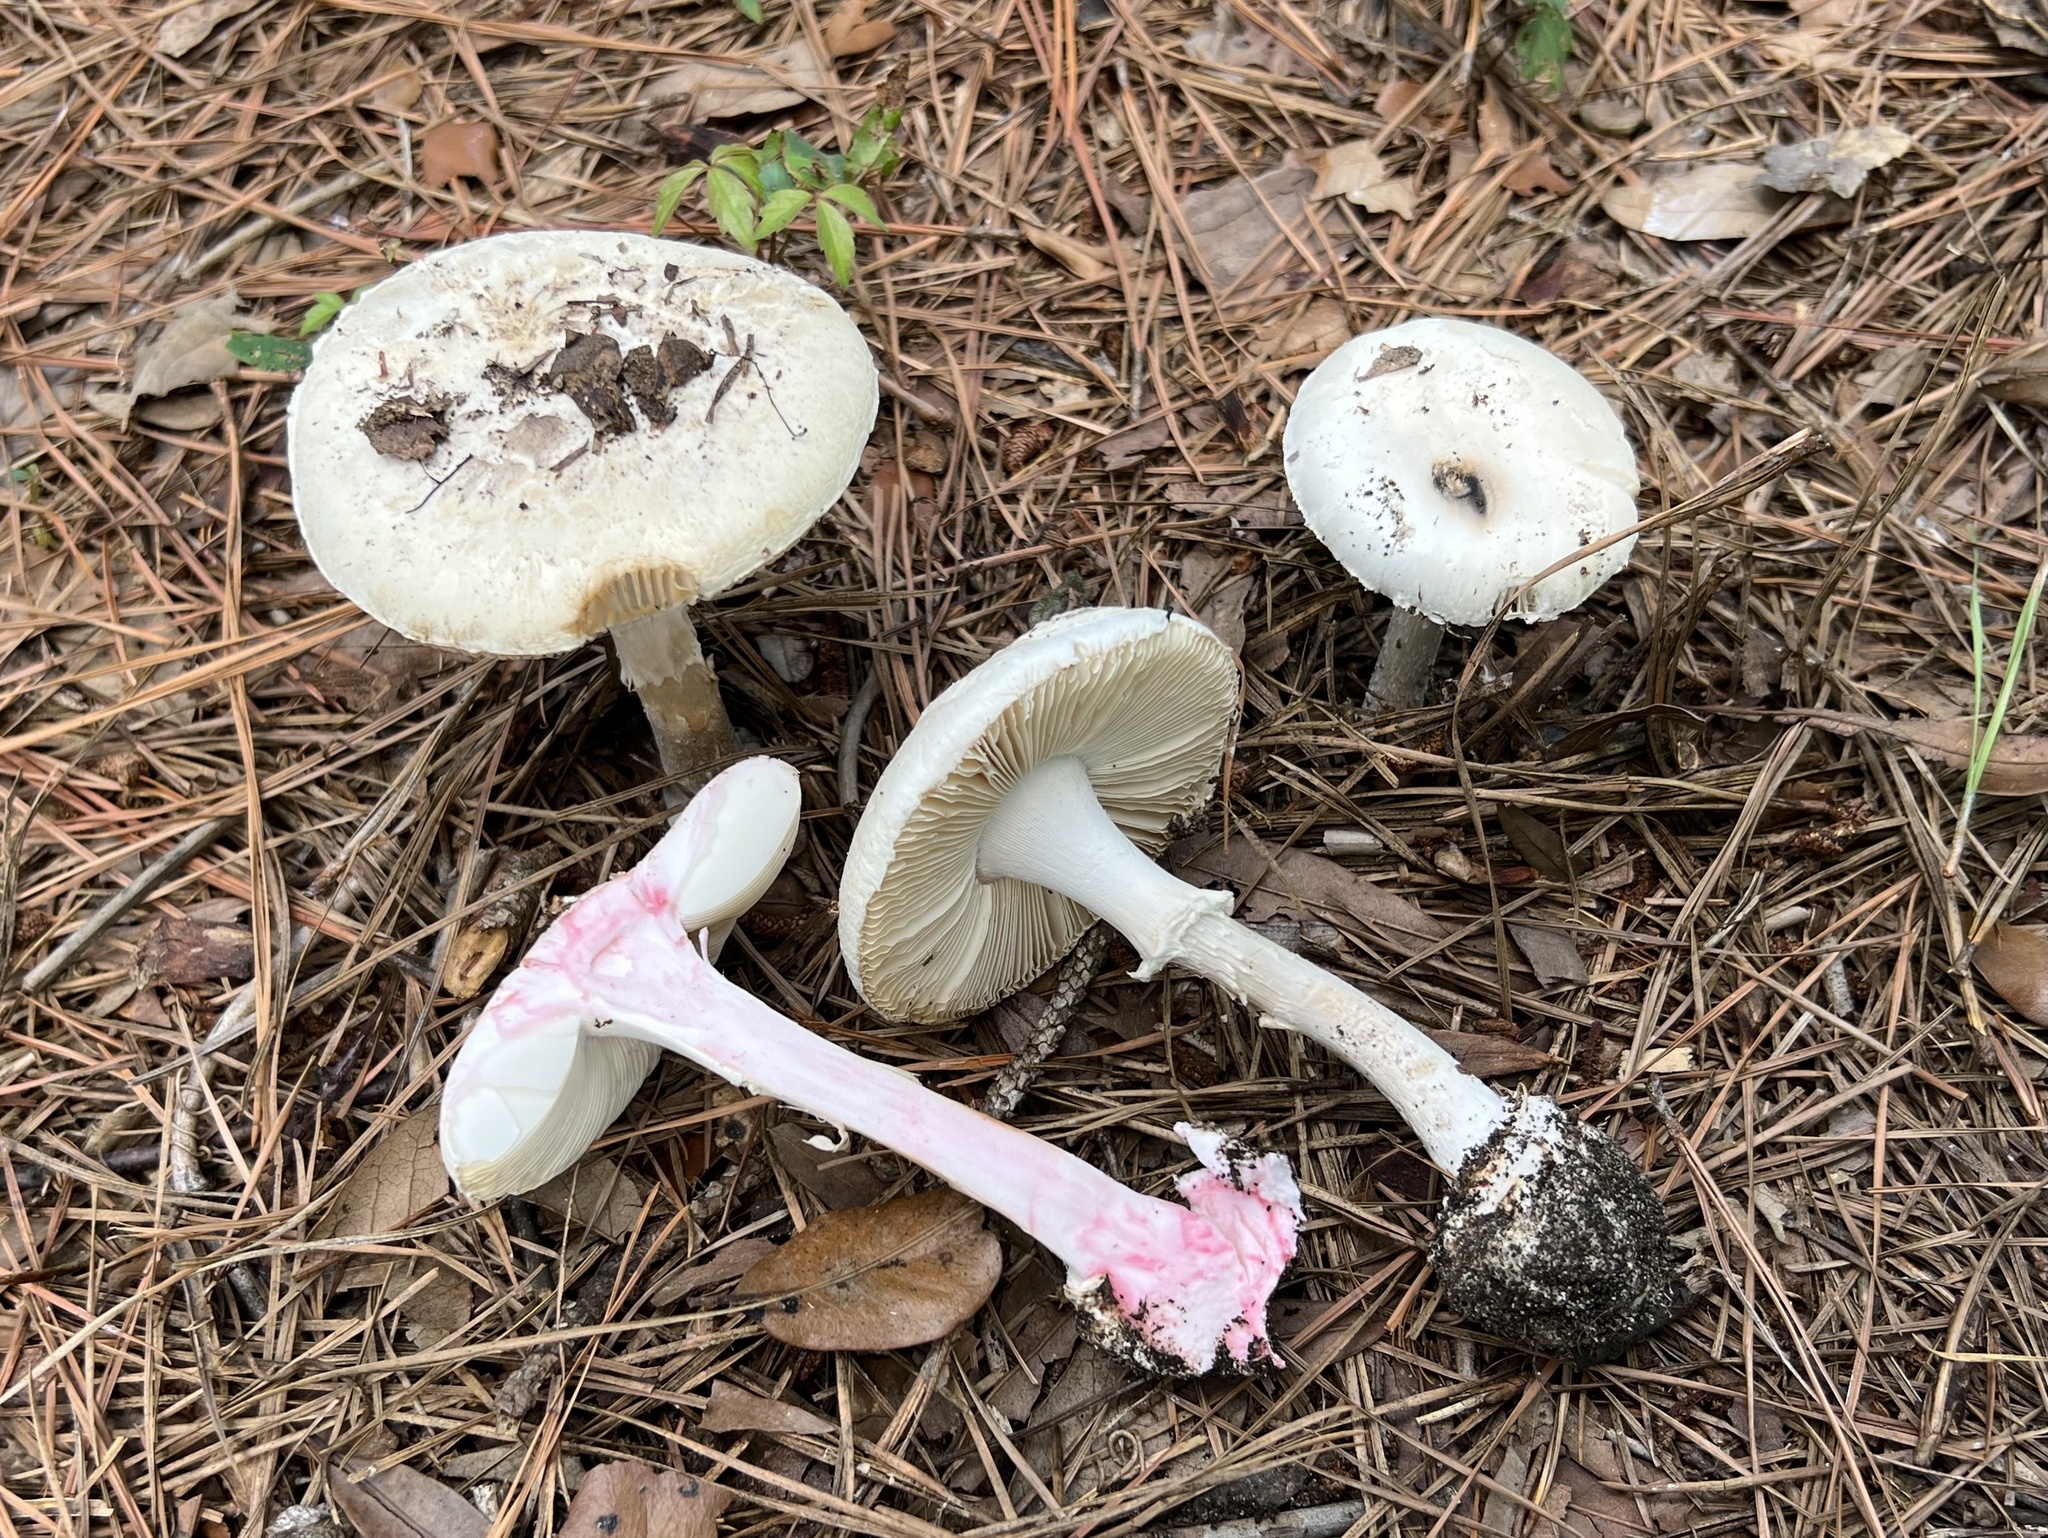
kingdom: Fungi
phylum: Basidiomycota
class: Agaricomycetes
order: Agaricales
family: Amanitaceae
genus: Amanita
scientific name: Amanita mutabilis
